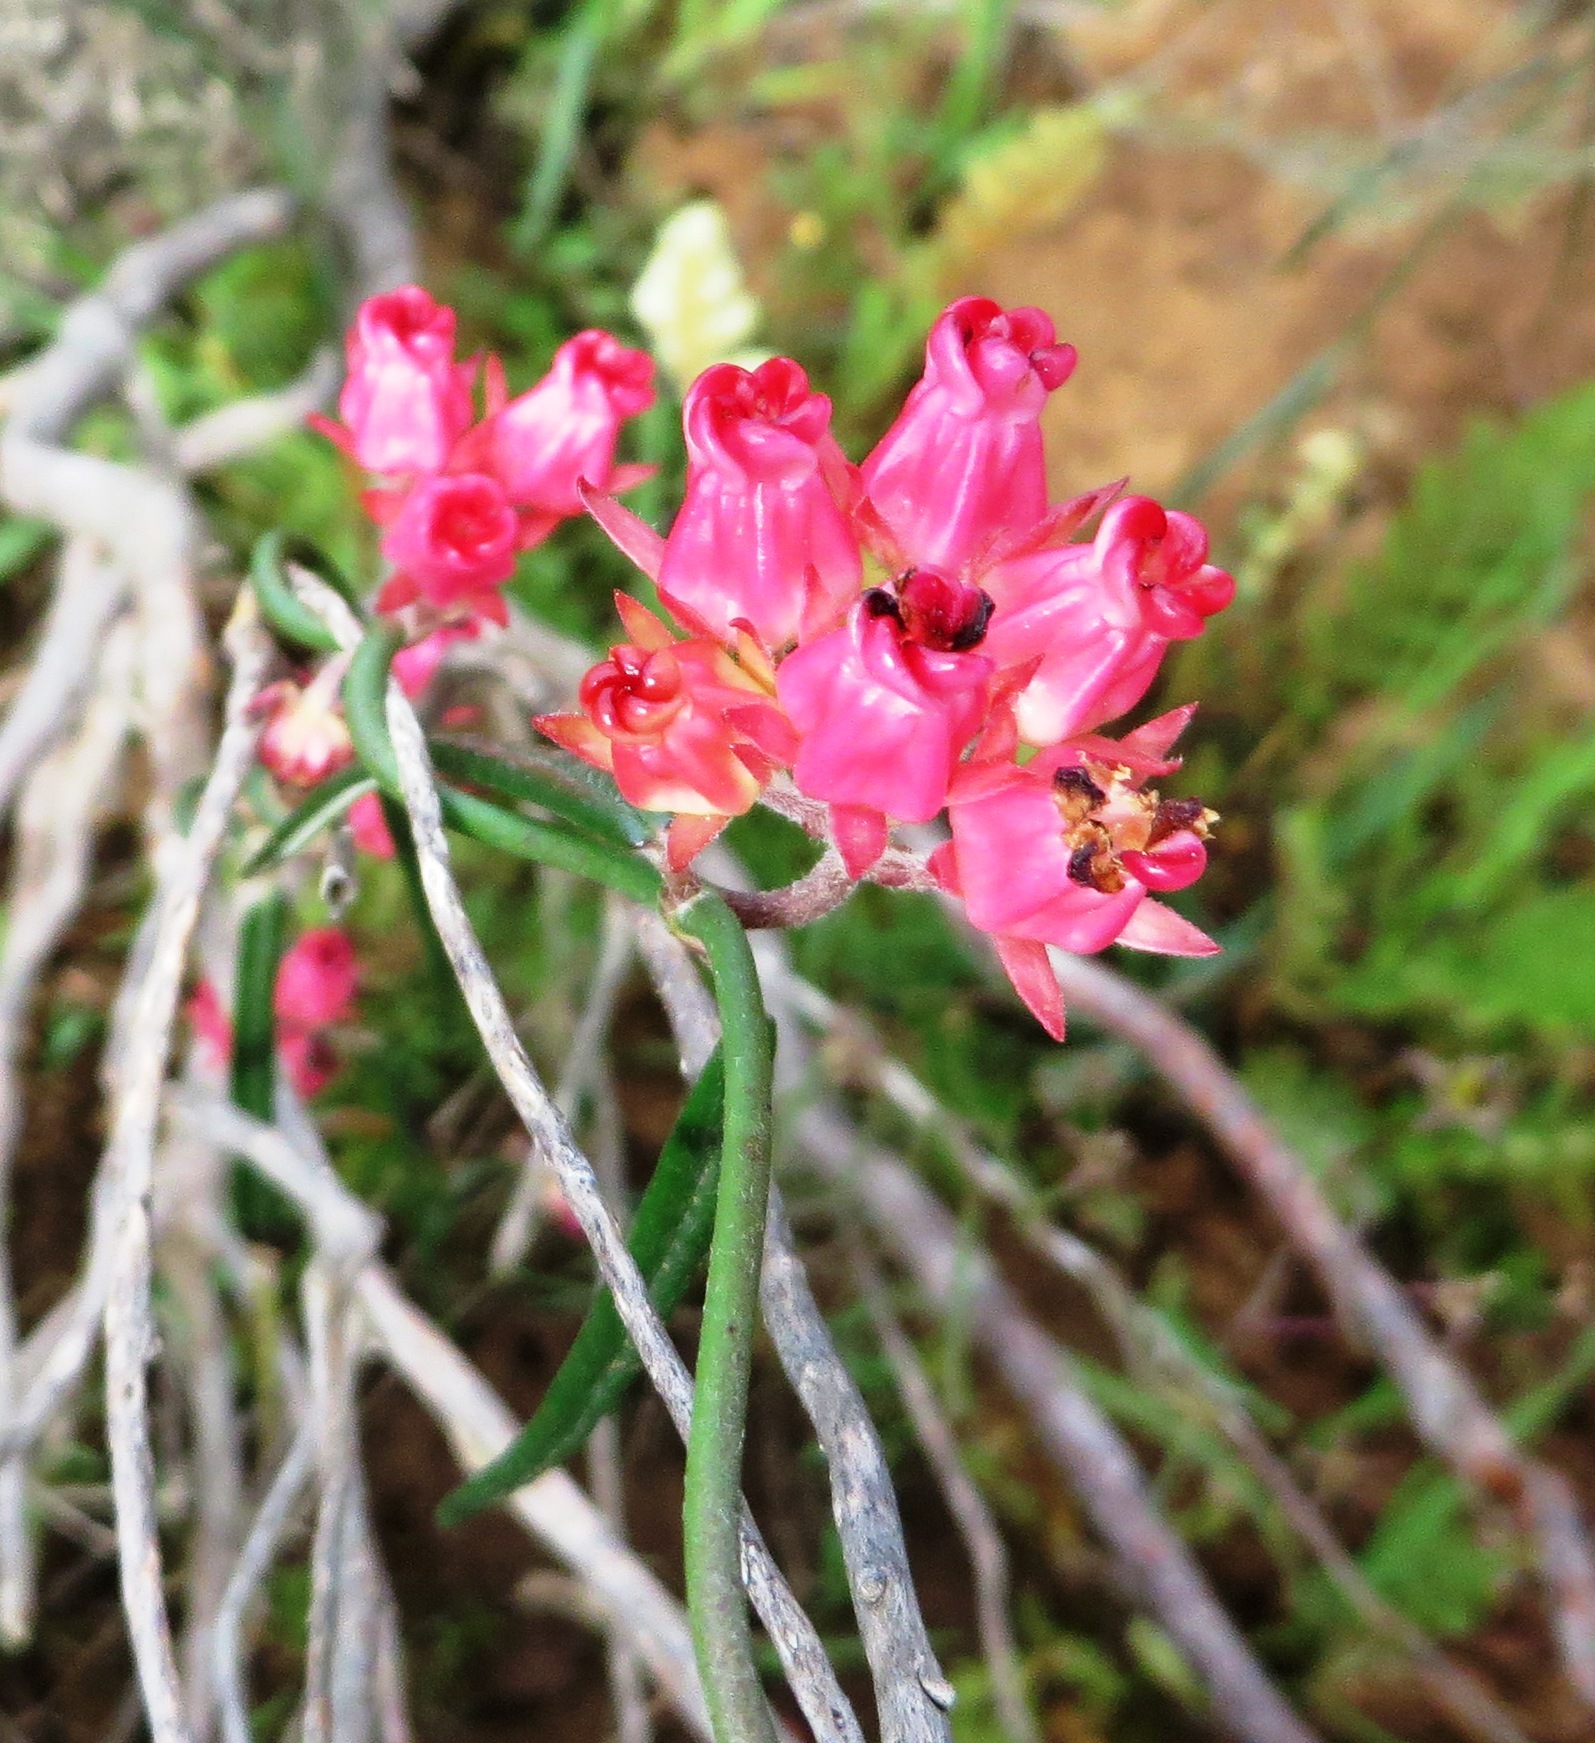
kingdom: Plantae
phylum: Tracheophyta
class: Magnoliopsida
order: Gentianales
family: Apocynaceae
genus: Microloma
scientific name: Microloma tenuifolium
